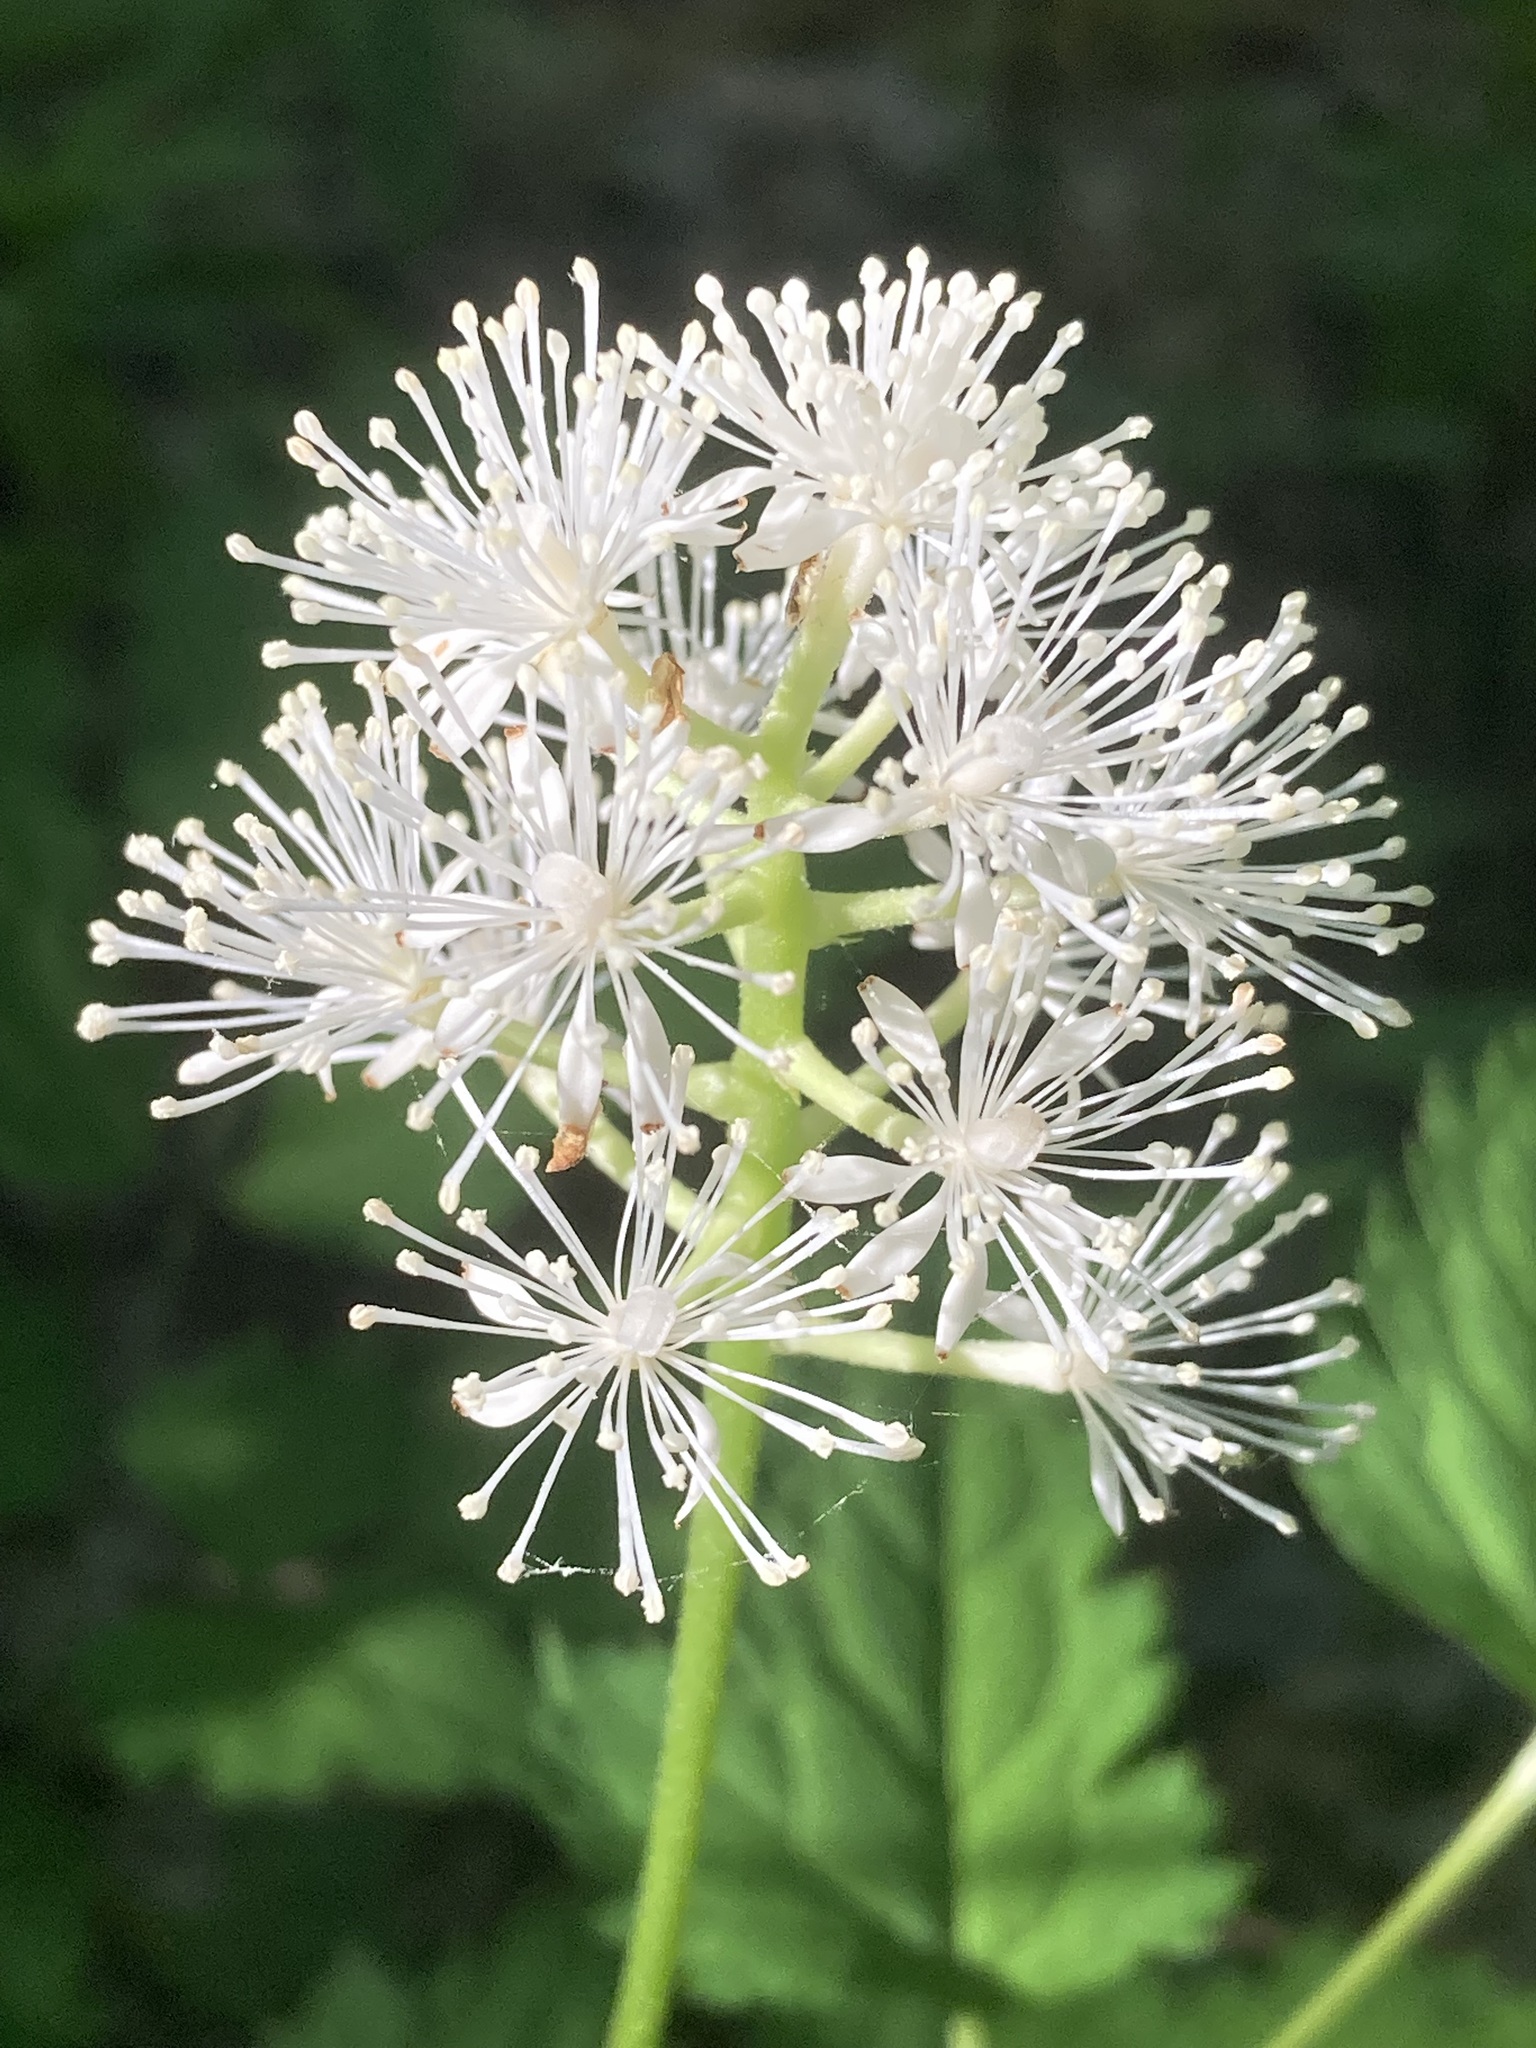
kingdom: Plantae
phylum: Tracheophyta
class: Magnoliopsida
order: Ranunculales
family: Ranunculaceae
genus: Actaea
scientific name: Actaea pachypoda
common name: Doll's-eyes
